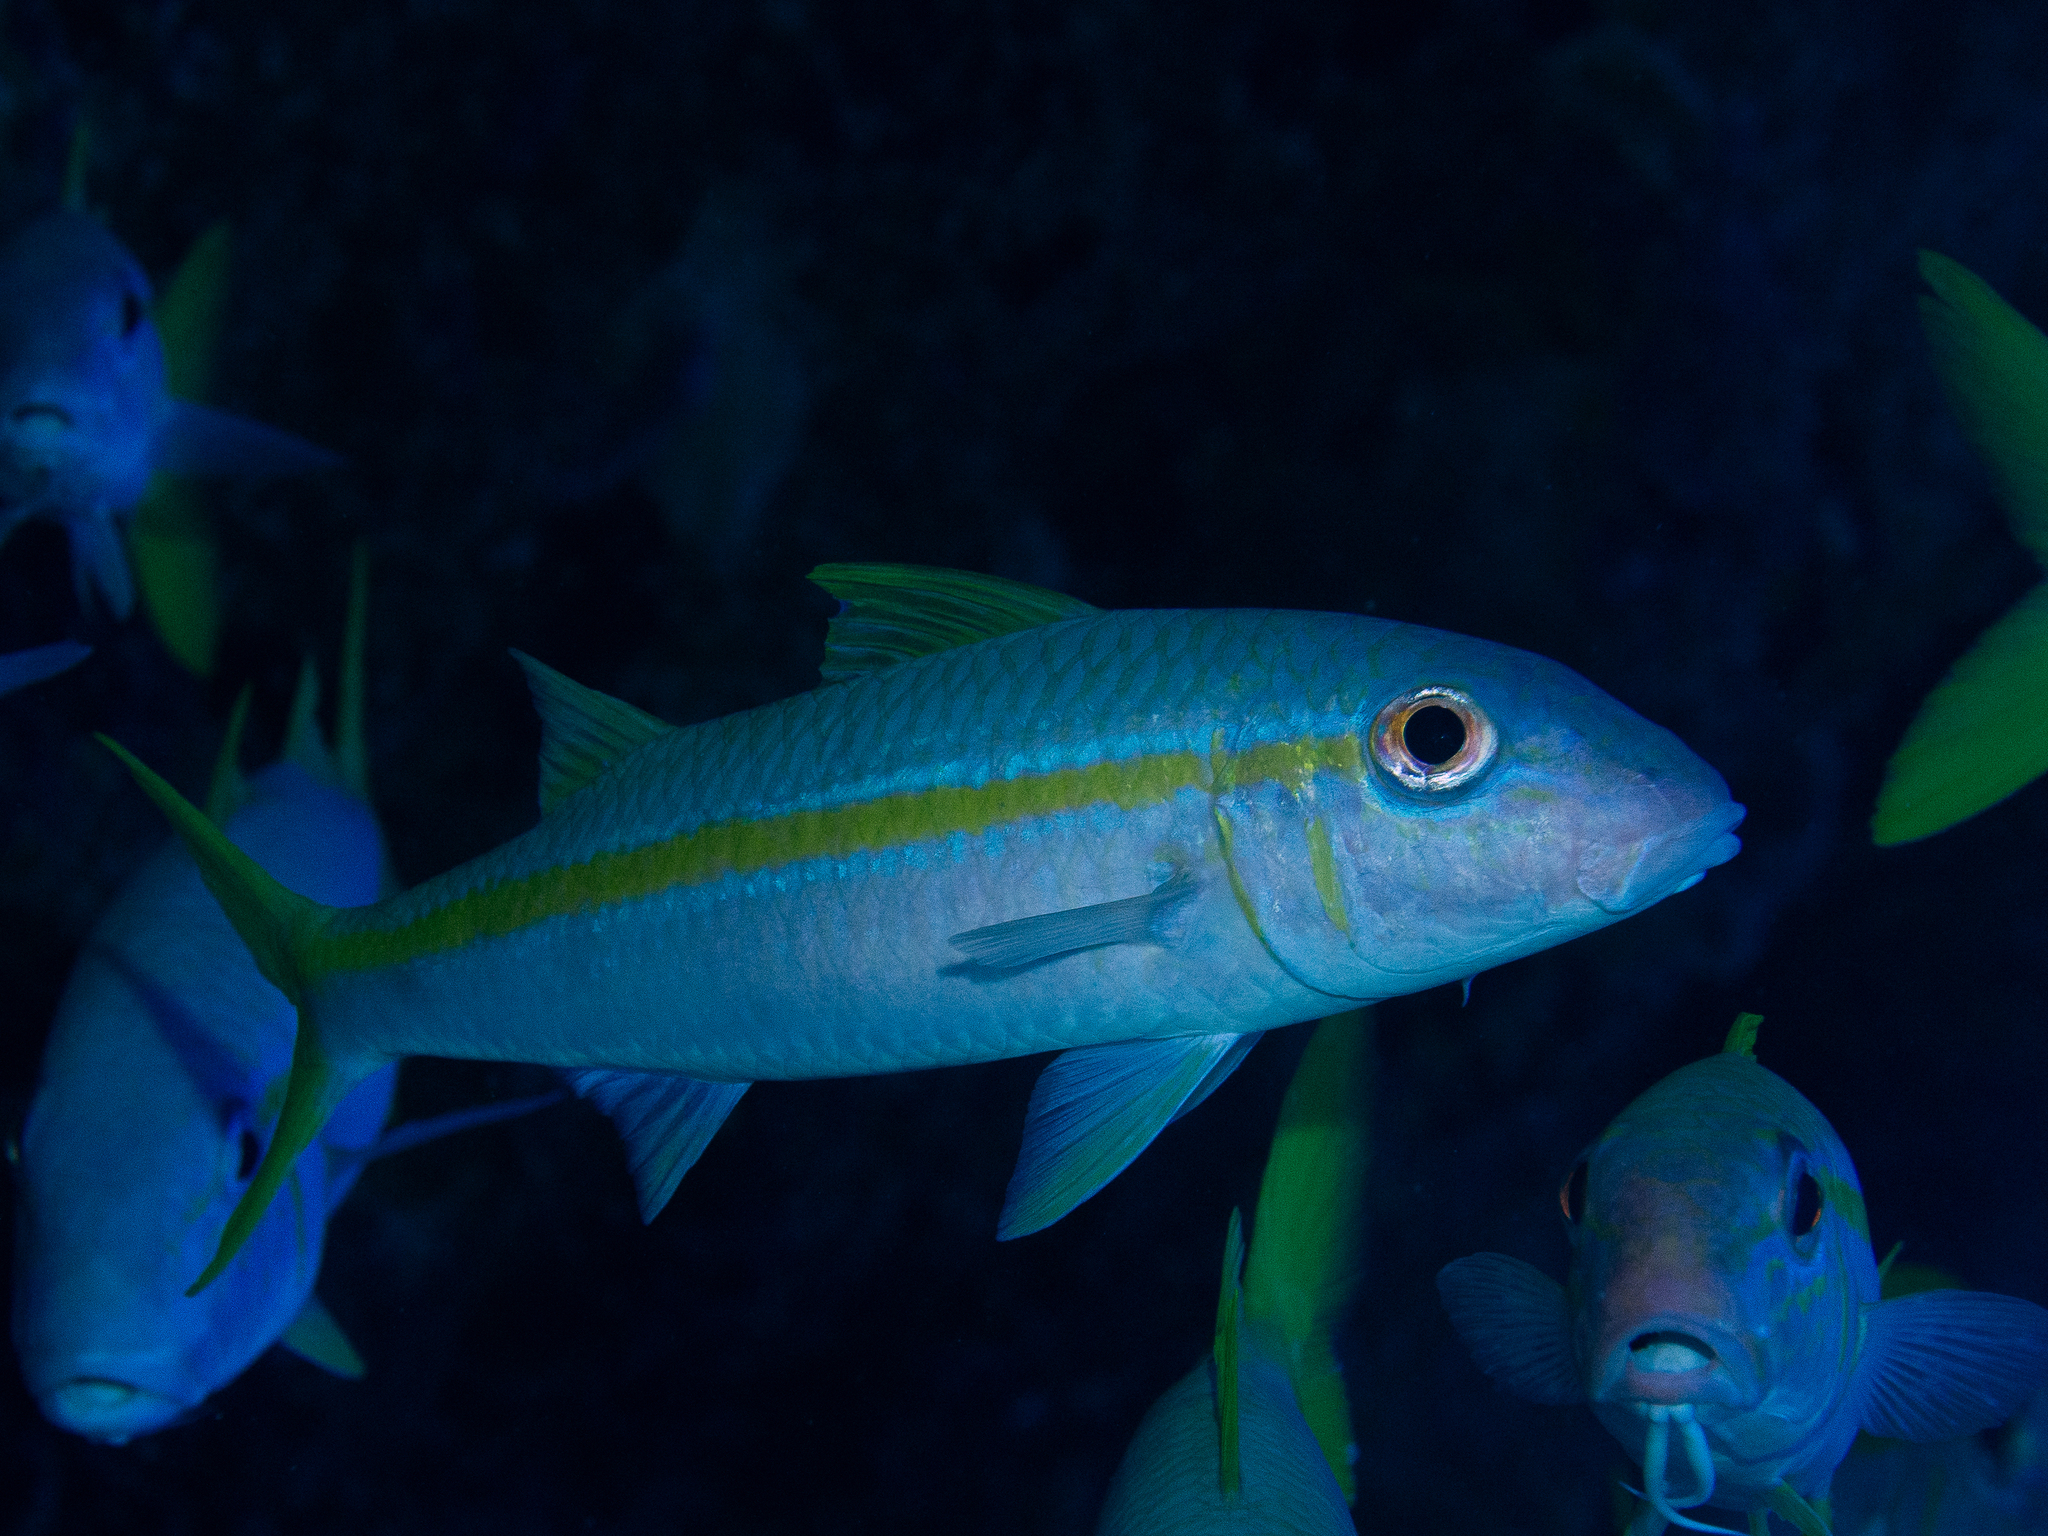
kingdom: Animalia
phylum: Chordata
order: Perciformes
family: Mullidae
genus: Mulloidichthys
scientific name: Mulloidichthys martinicus
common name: Yellow goatfish
